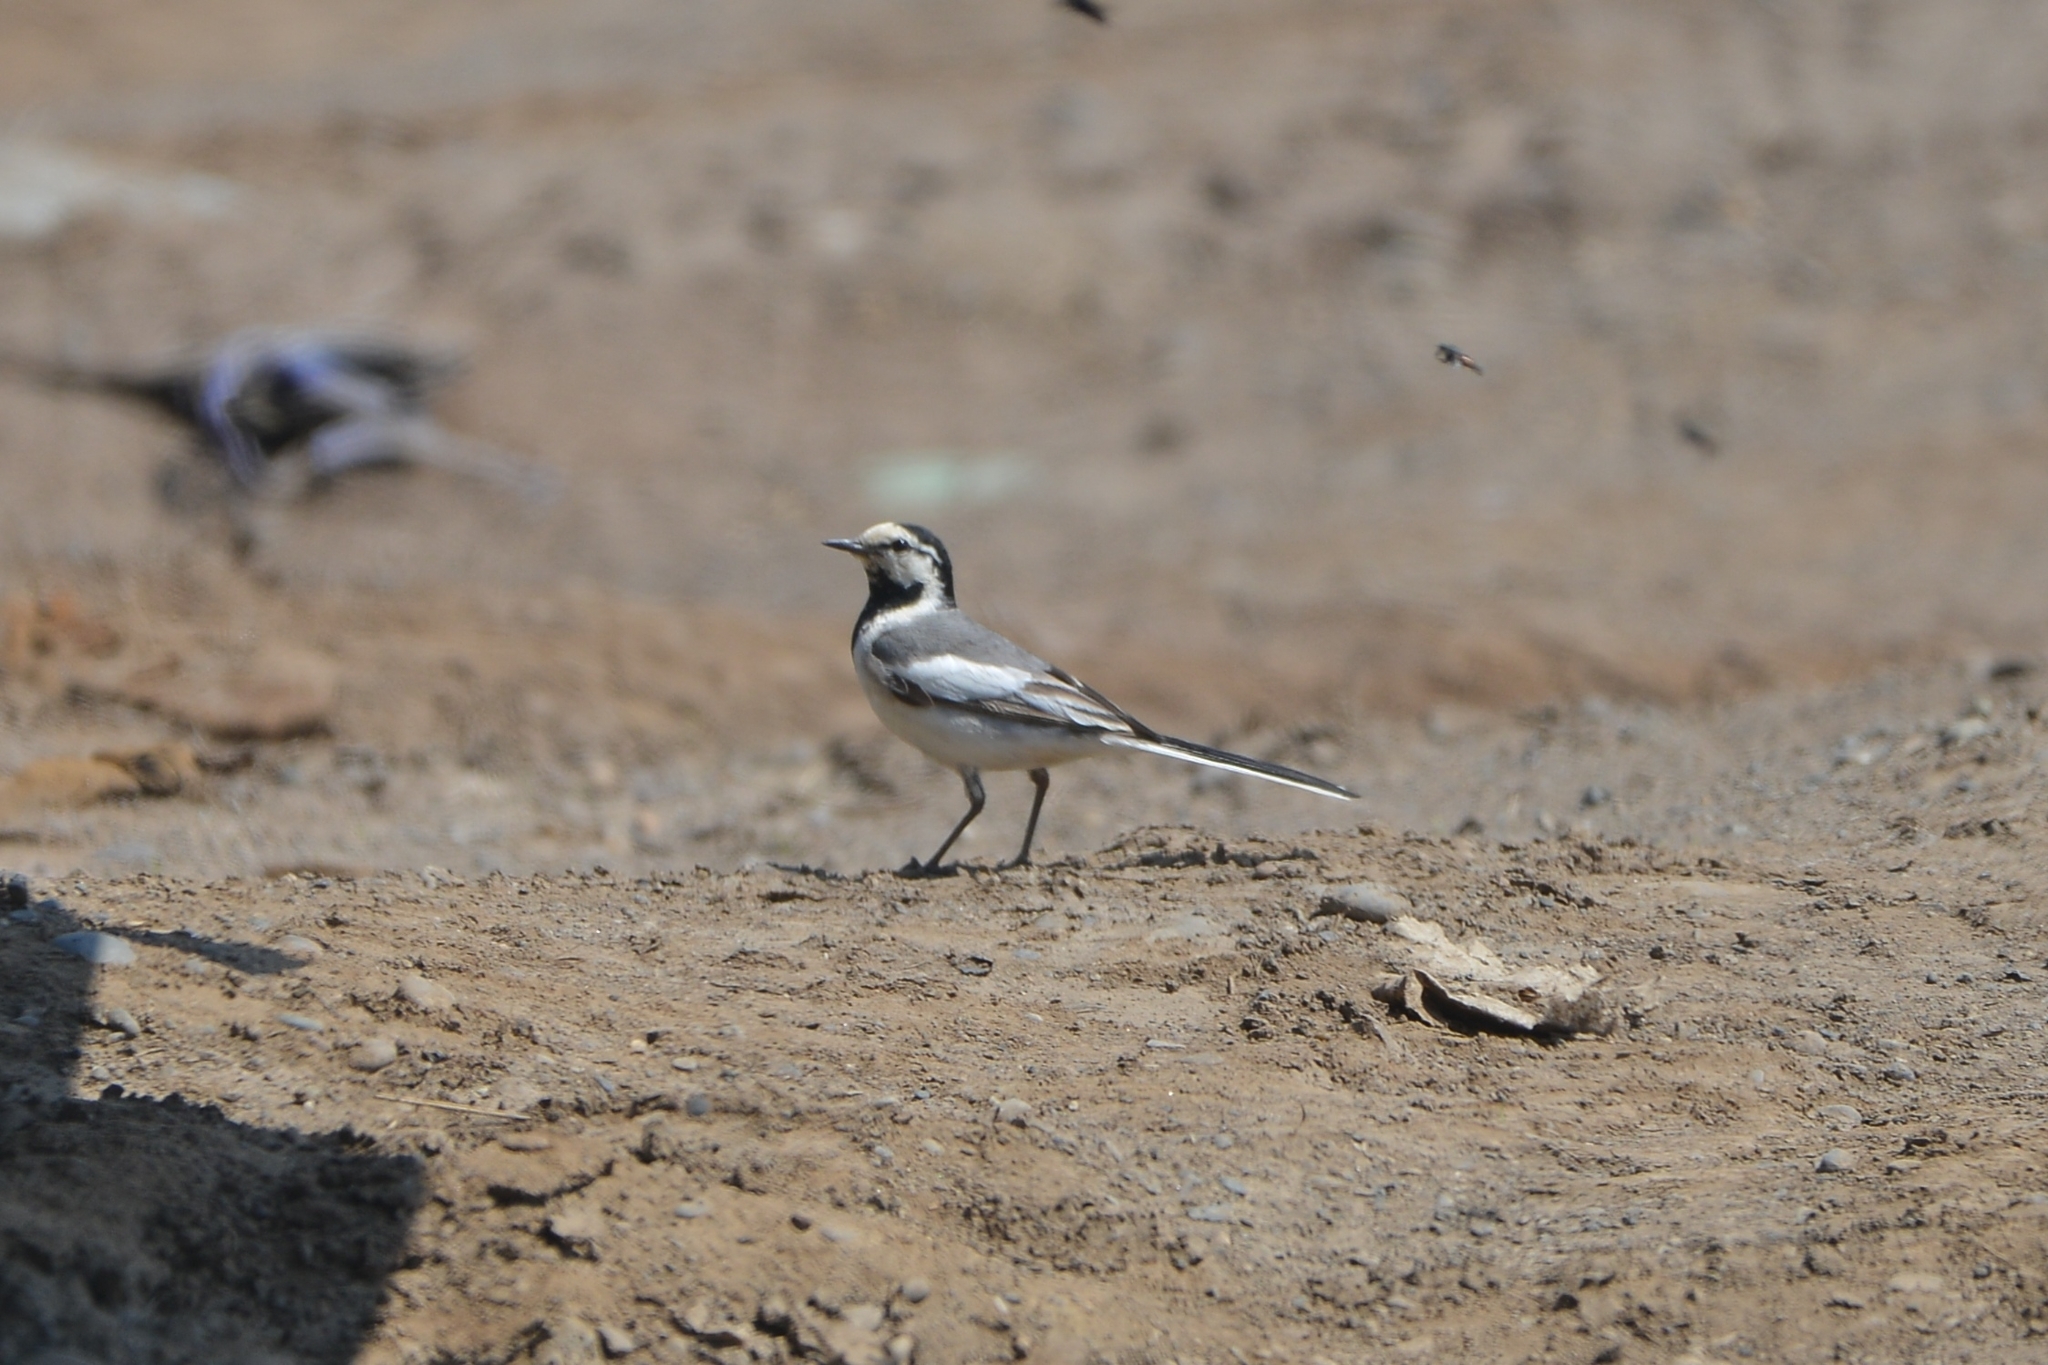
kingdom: Animalia
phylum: Chordata
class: Aves
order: Passeriformes
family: Motacillidae
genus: Motacilla
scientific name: Motacilla alba
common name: White wagtail
